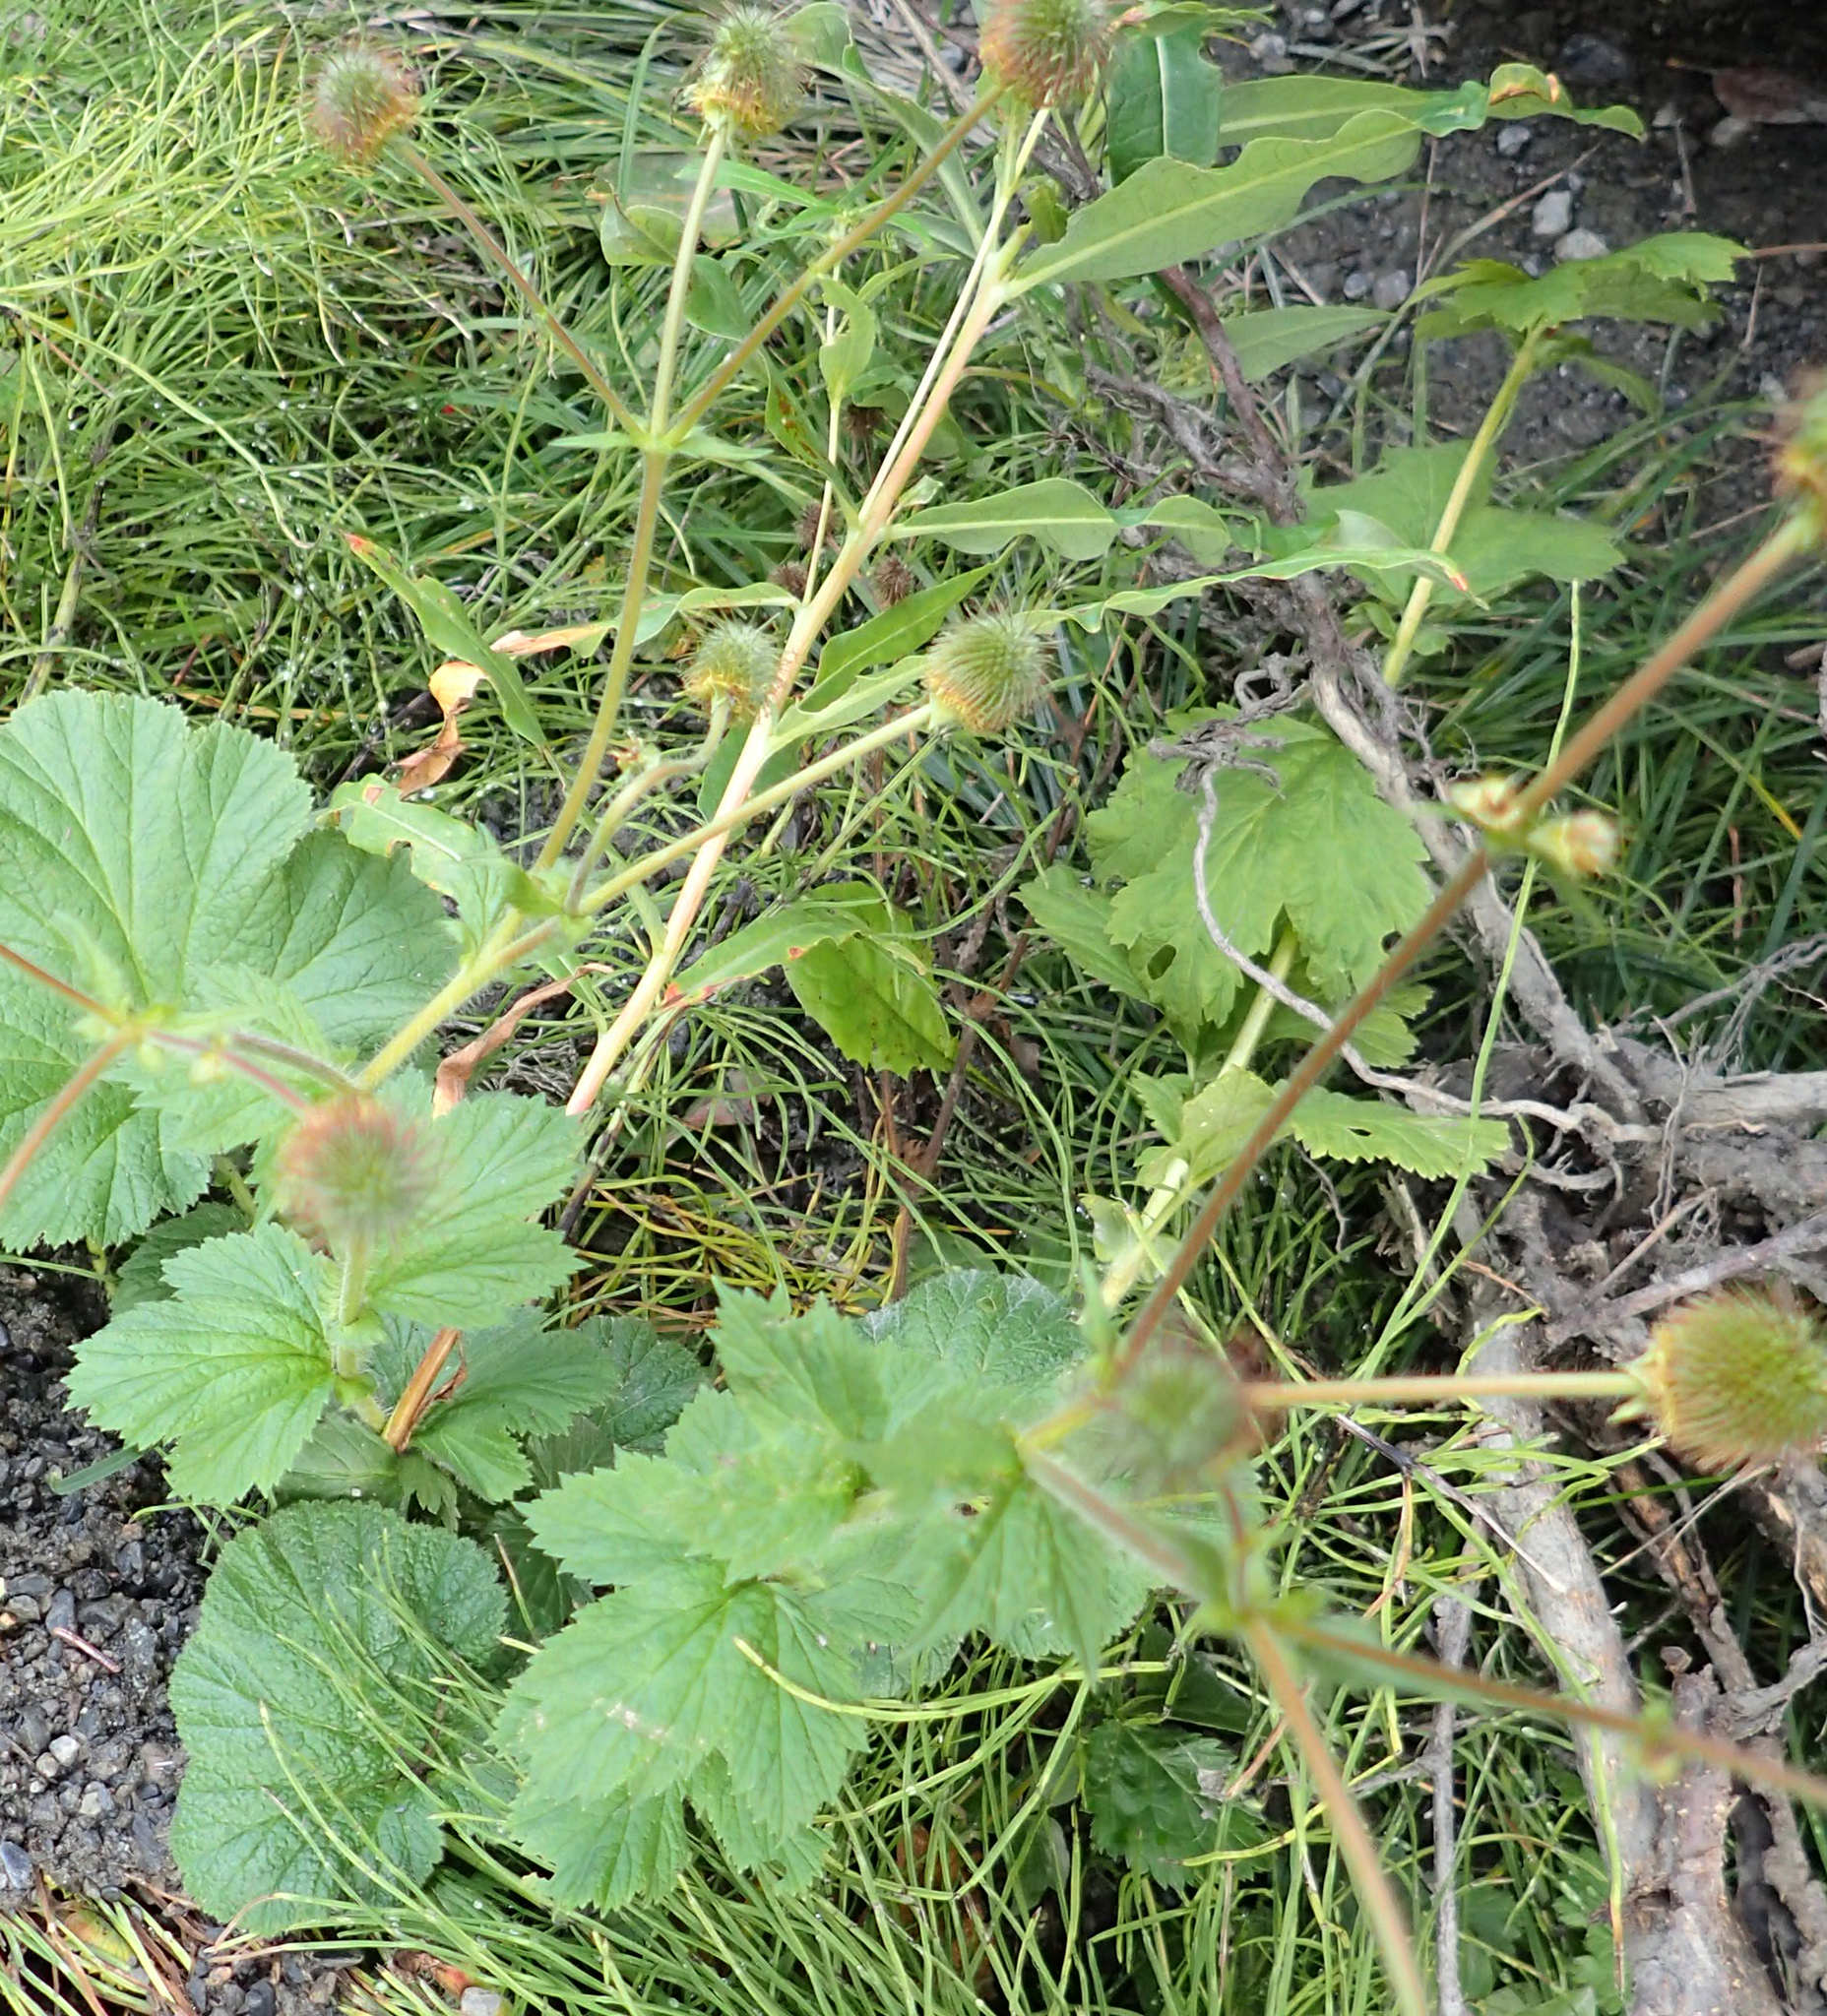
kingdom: Plantae
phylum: Tracheophyta
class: Magnoliopsida
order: Rosales
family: Rosaceae
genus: Geum
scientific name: Geum macrophyllum
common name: Large-leaved avens
